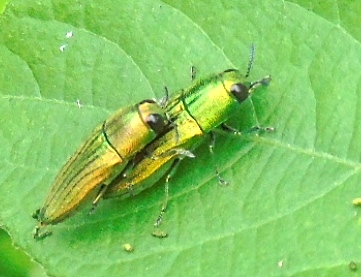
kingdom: Animalia
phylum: Arthropoda
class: Insecta
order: Coleoptera
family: Buprestidae
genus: Agaeocera
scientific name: Agaeocera scintillans
